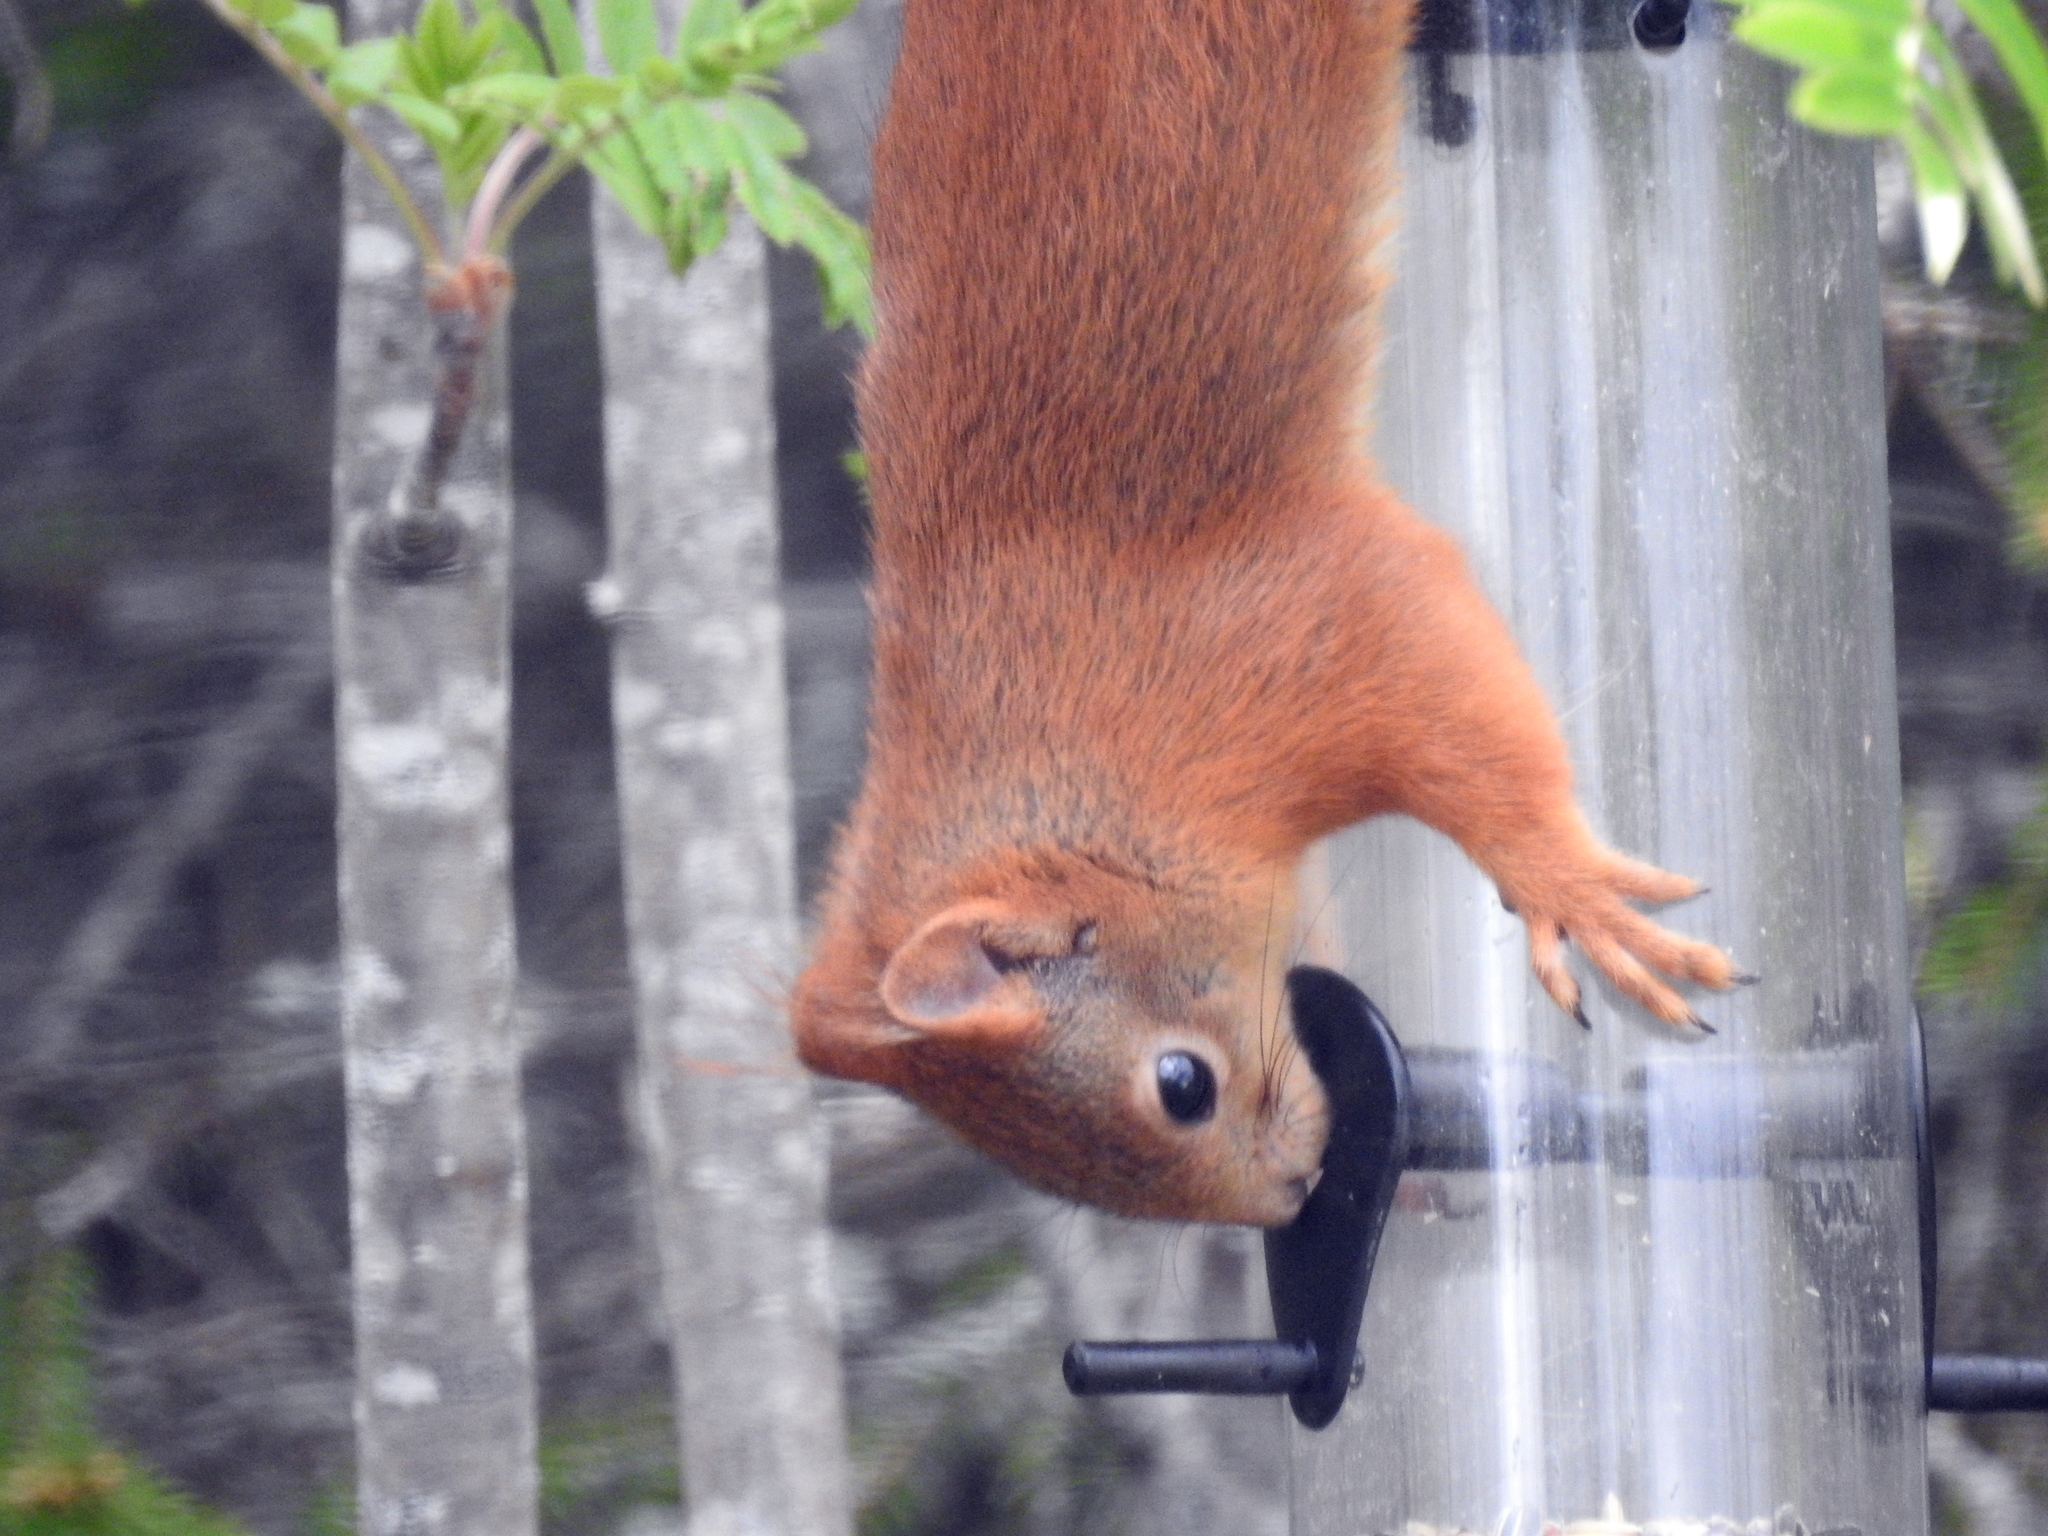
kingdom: Animalia
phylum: Chordata
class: Mammalia
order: Rodentia
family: Sciuridae
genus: Sciurus
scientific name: Sciurus vulgaris
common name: Eurasian red squirrel
